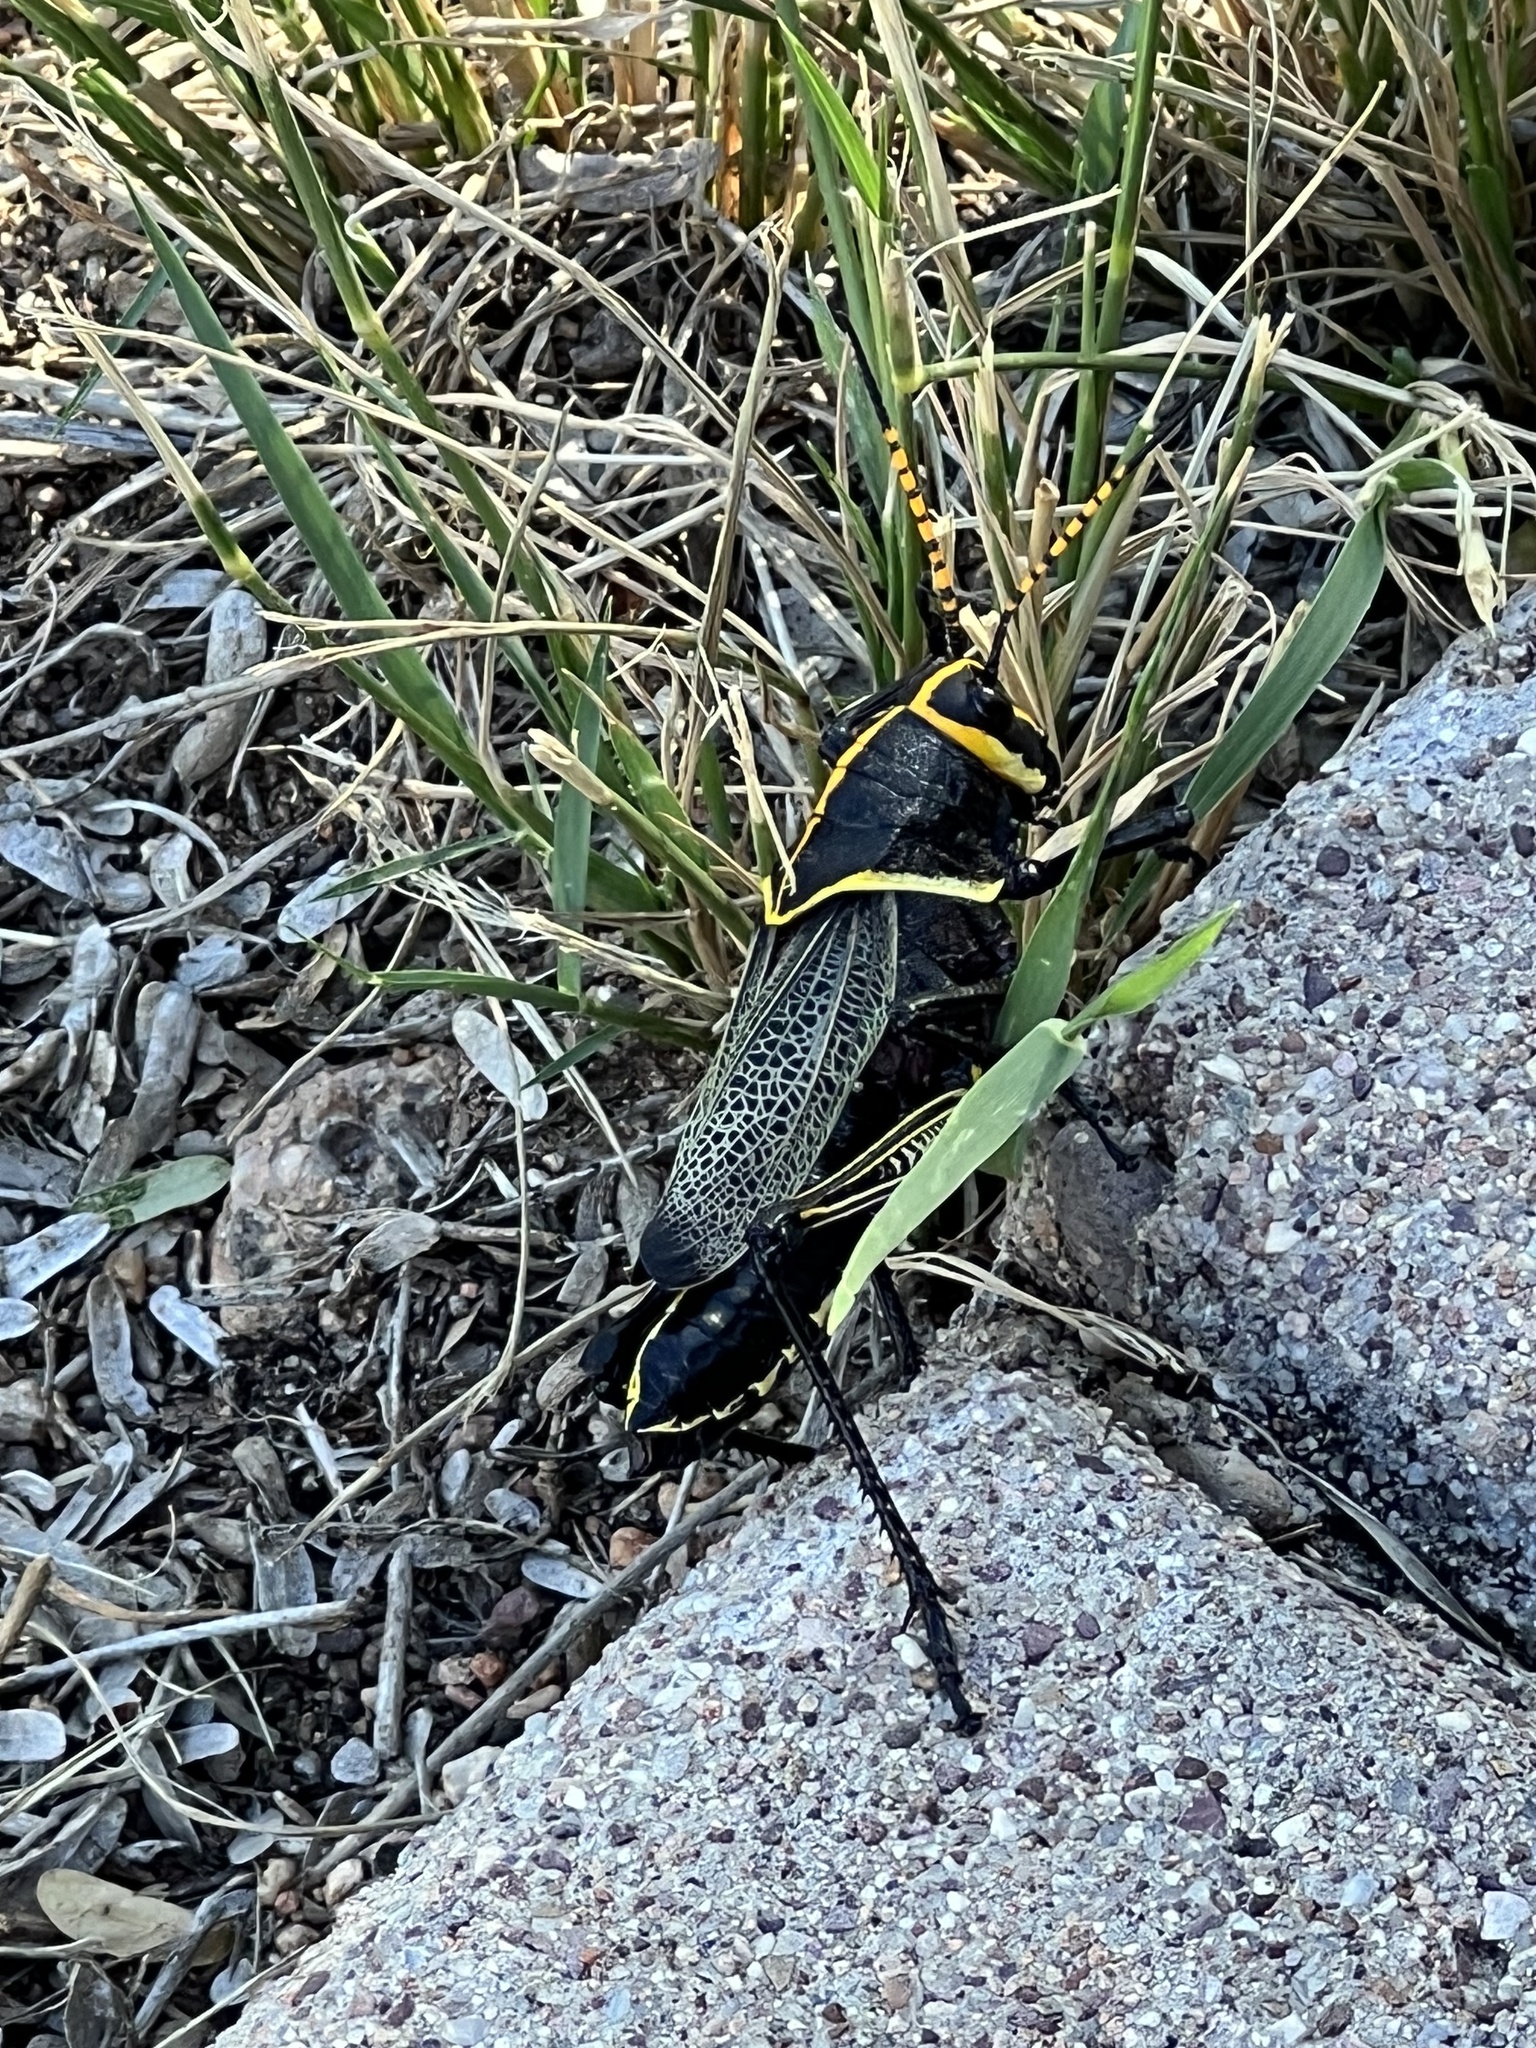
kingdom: Animalia
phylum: Arthropoda
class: Insecta
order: Orthoptera
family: Romaleidae
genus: Romalea
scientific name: Romalea
